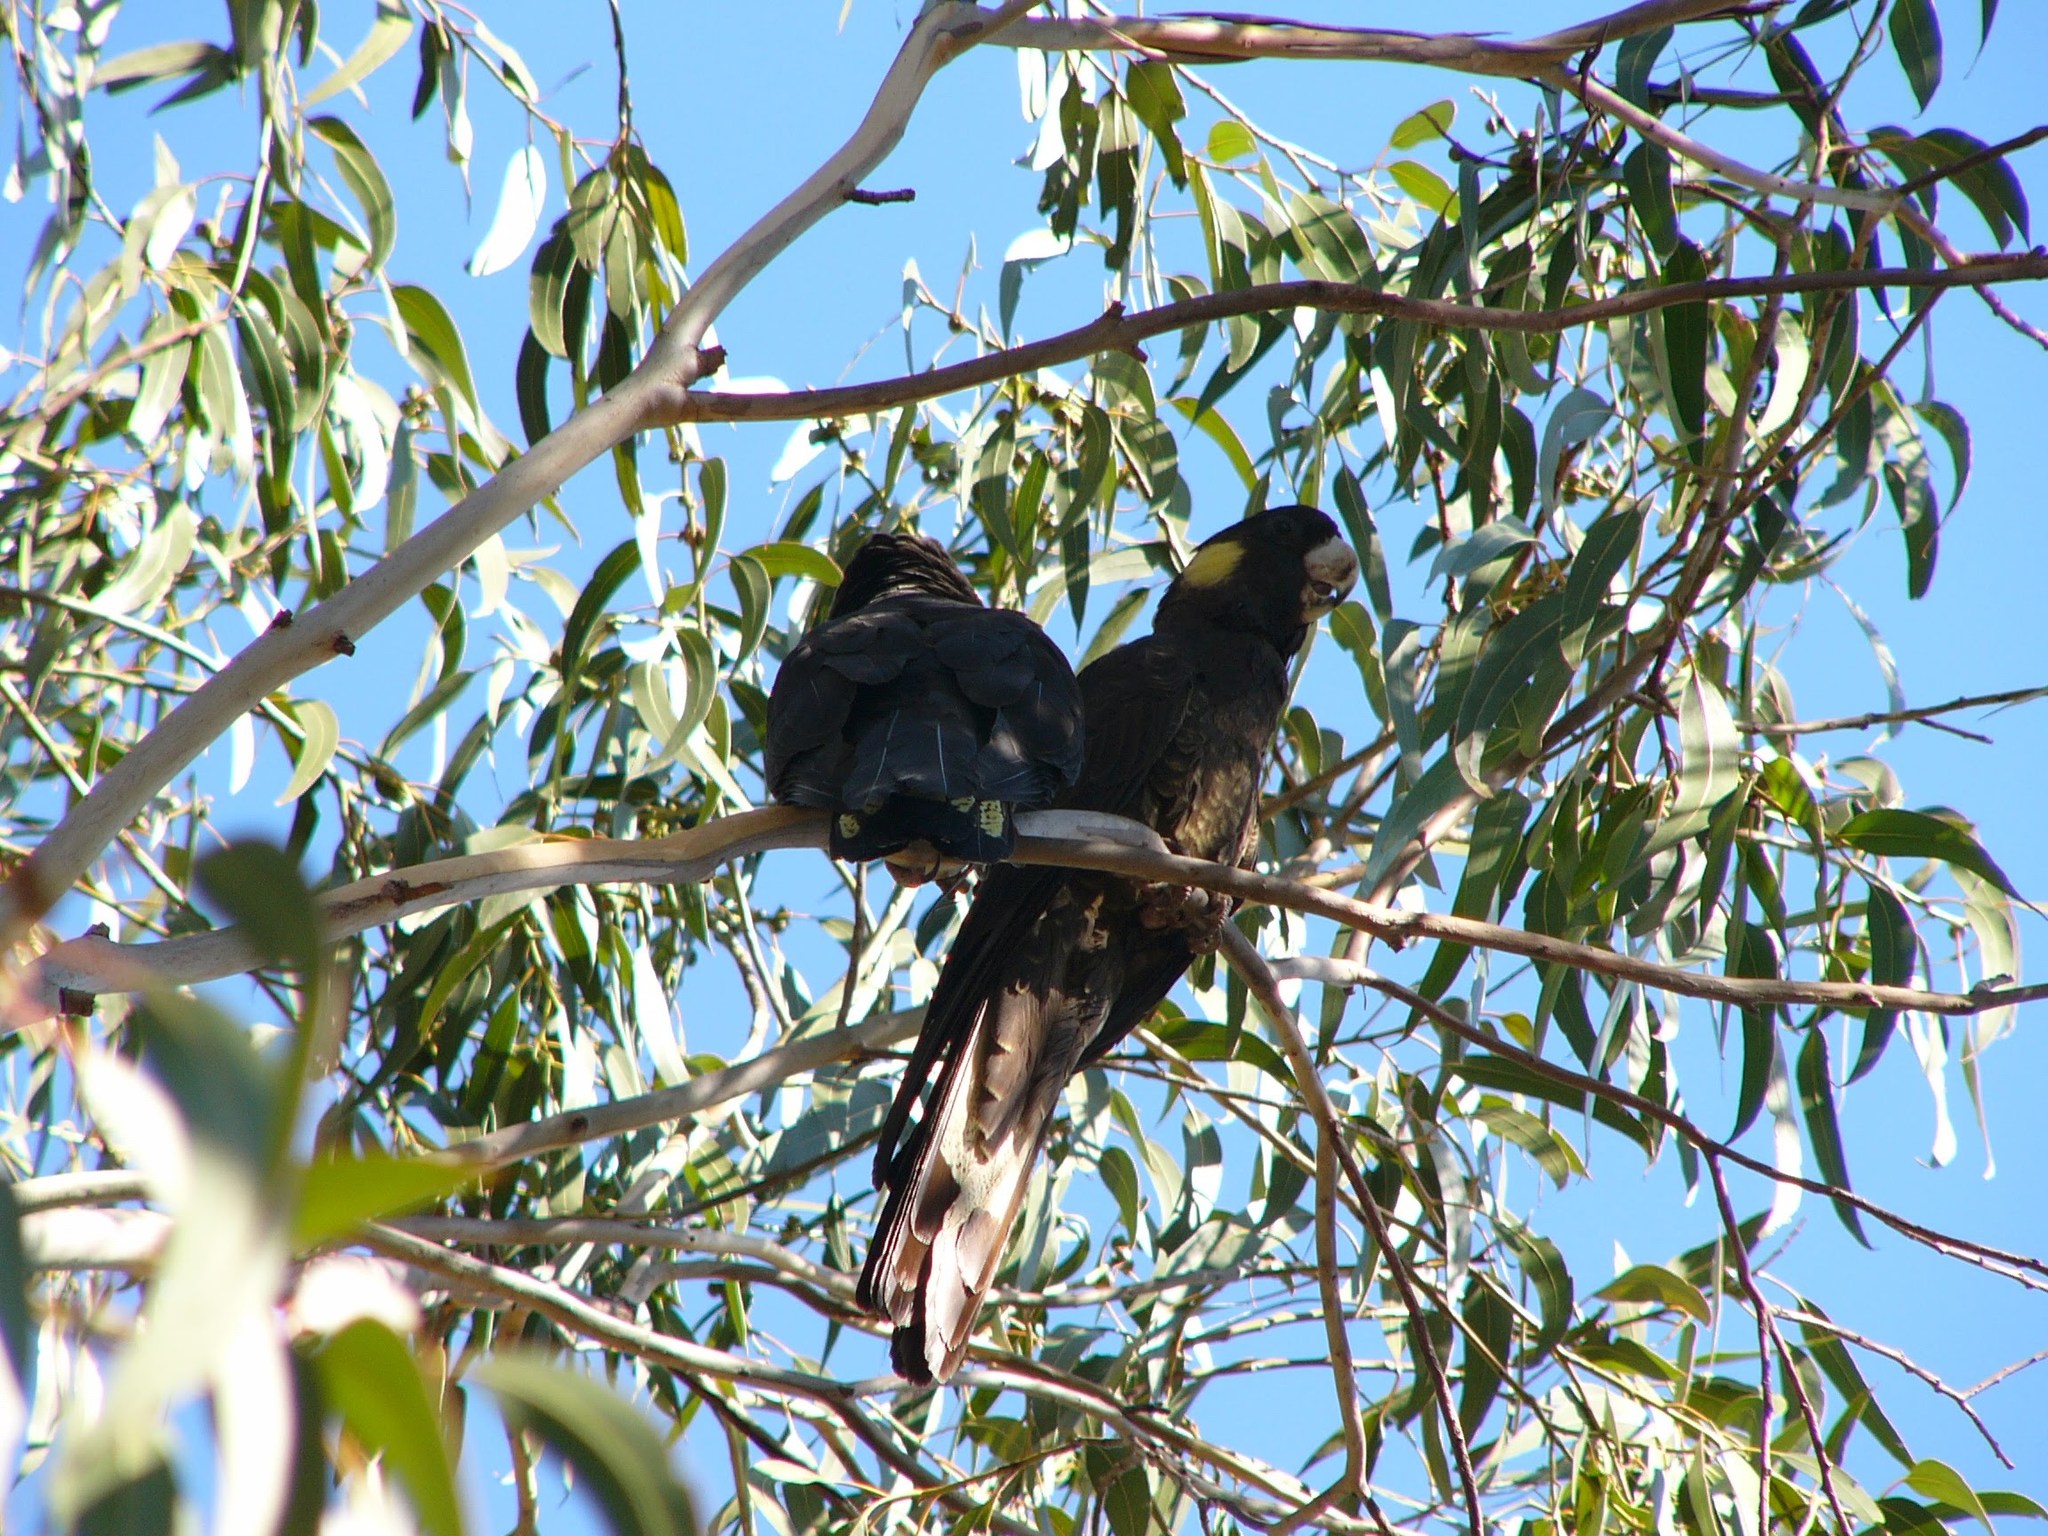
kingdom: Animalia
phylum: Chordata
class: Aves
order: Psittaciformes
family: Cacatuidae
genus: Zanda
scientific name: Zanda funerea
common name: Yellow-tailed black-cockatoo
